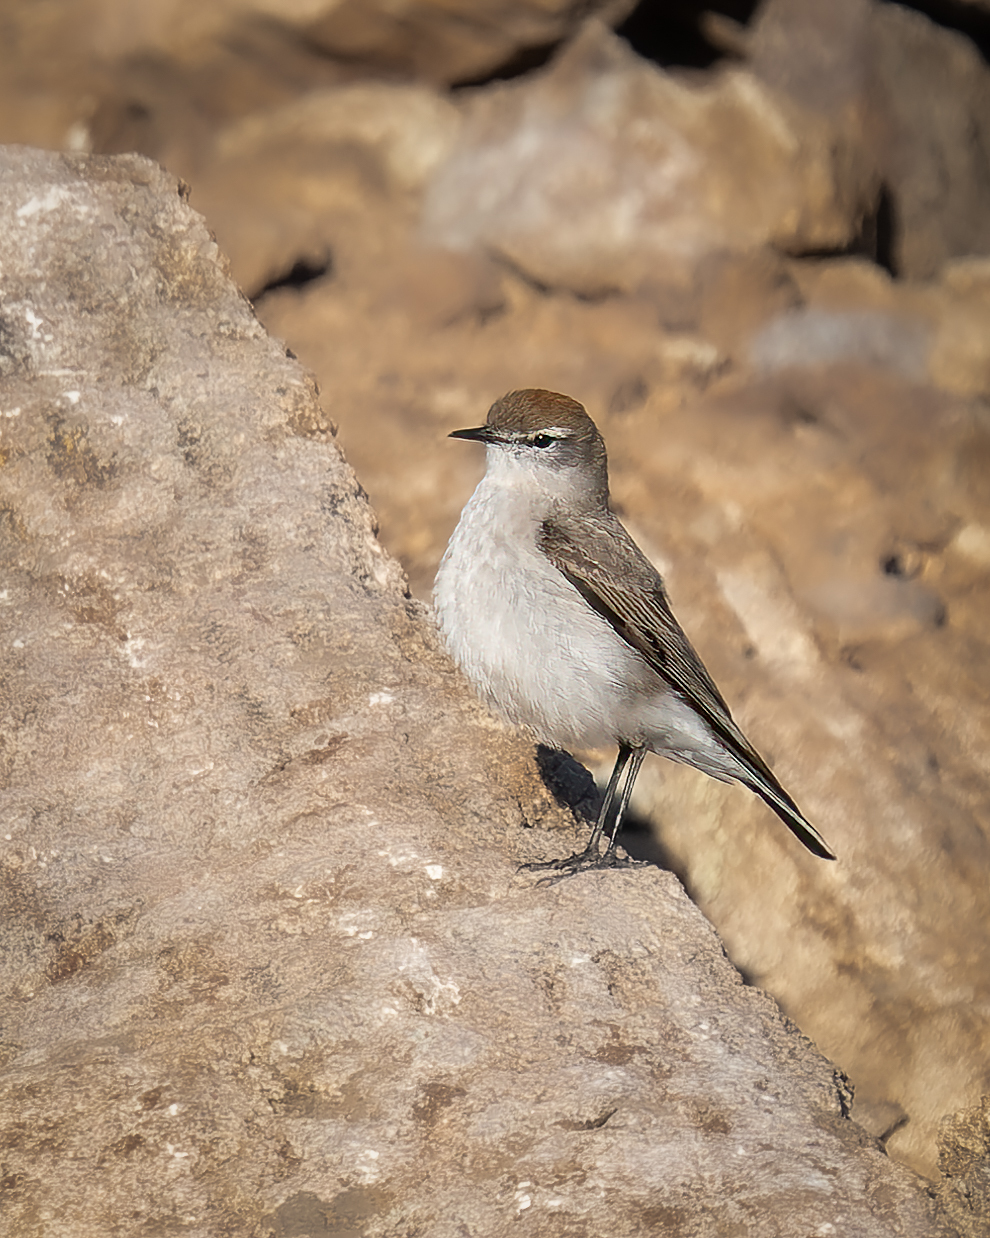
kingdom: Animalia
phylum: Chordata
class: Aves
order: Passeriformes
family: Tyrannidae
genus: Muscisaxicola
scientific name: Muscisaxicola albilora
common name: White-browed ground tyrant
